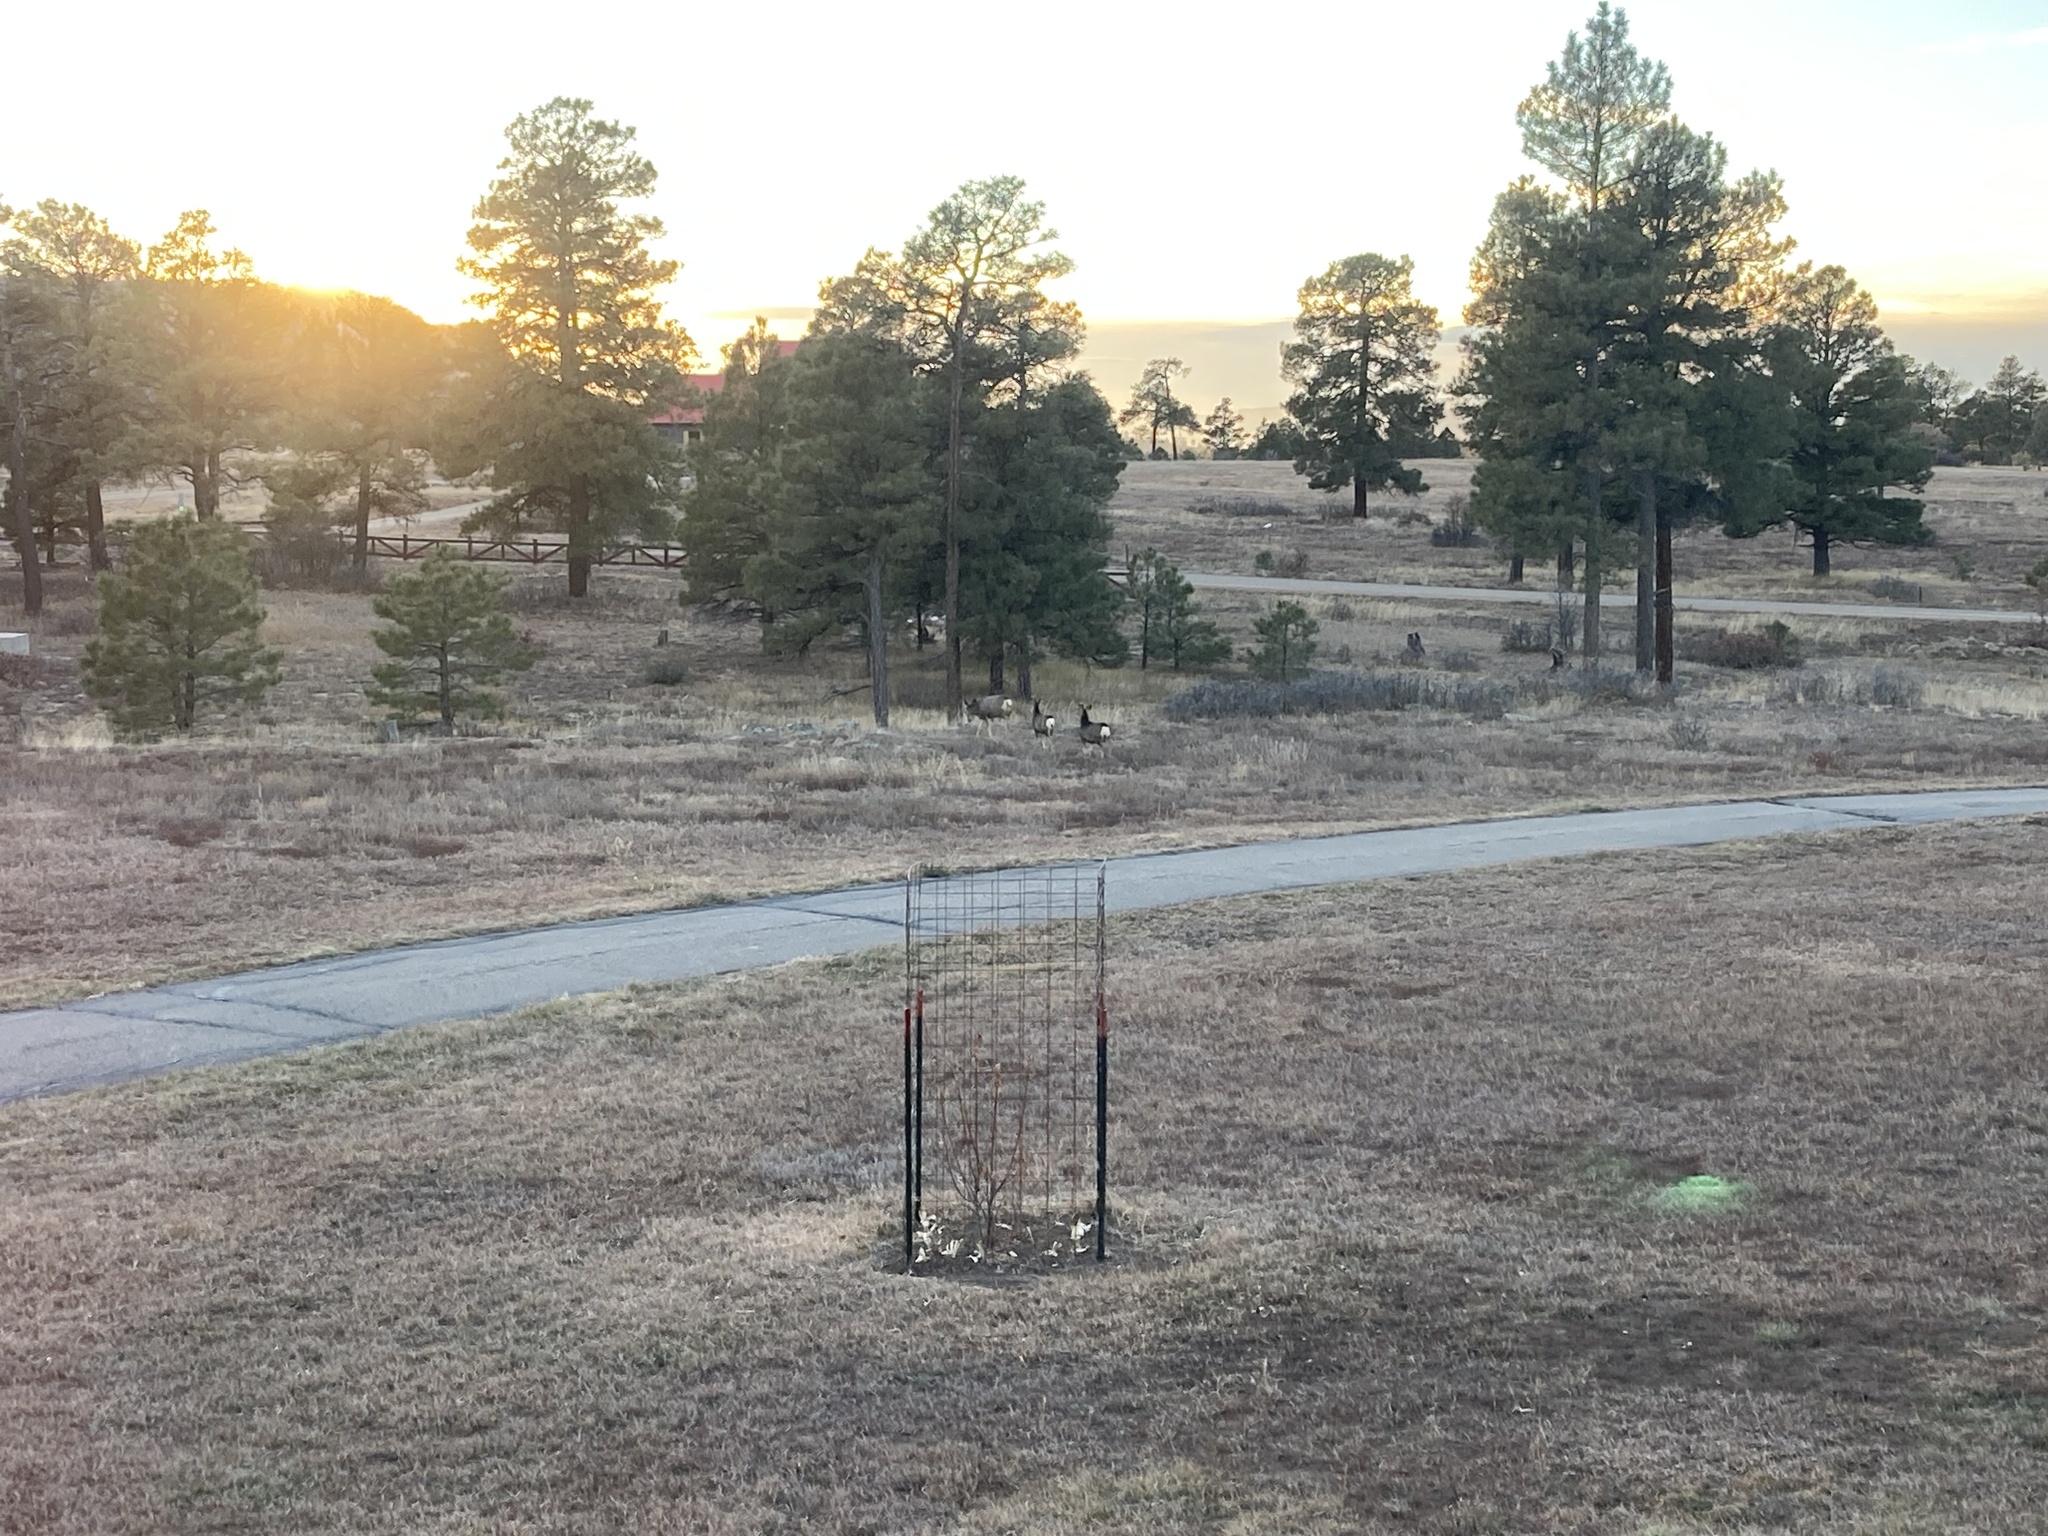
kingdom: Animalia
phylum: Chordata
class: Mammalia
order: Artiodactyla
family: Cervidae
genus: Odocoileus
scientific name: Odocoileus hemionus
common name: Mule deer
